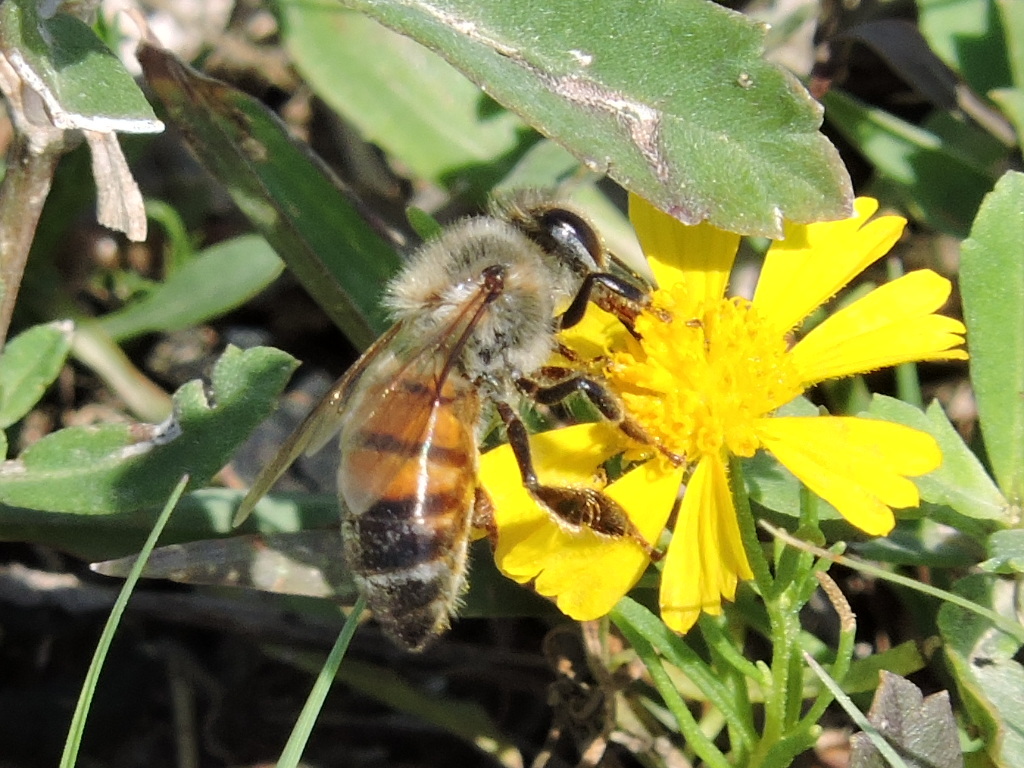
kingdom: Animalia
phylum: Arthropoda
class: Insecta
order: Hymenoptera
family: Apidae
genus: Apis
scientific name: Apis mellifera
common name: Honey bee
